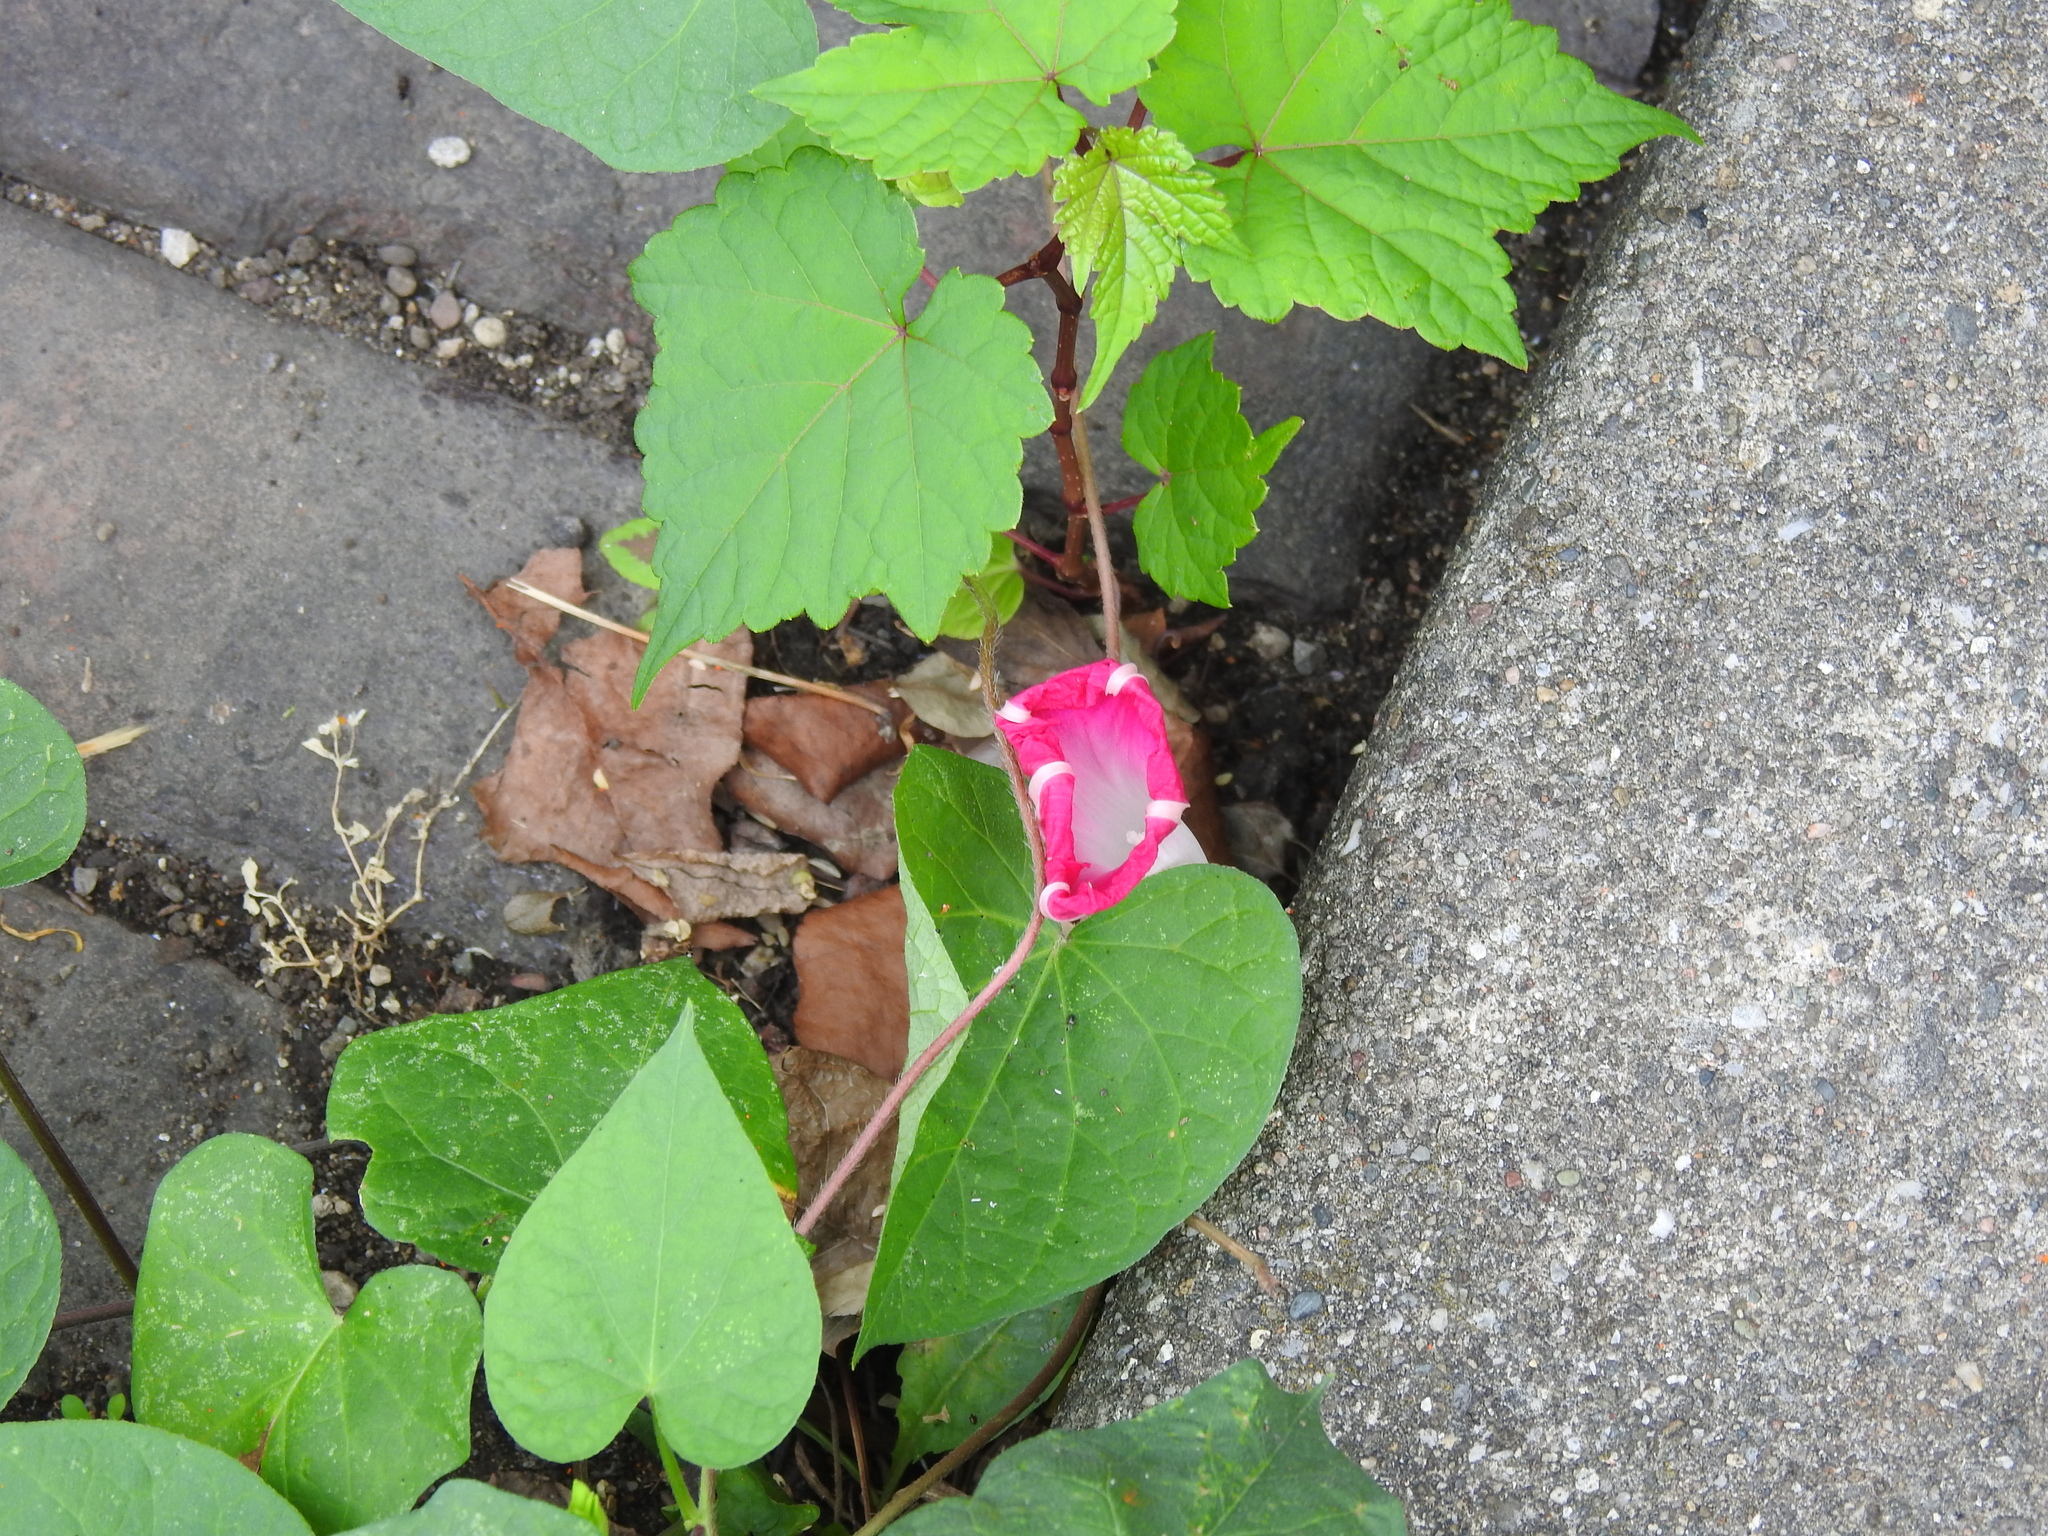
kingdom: Plantae
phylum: Tracheophyta
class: Magnoliopsida
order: Solanales
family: Convolvulaceae
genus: Ipomoea
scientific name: Ipomoea purpurea
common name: Common morning-glory
